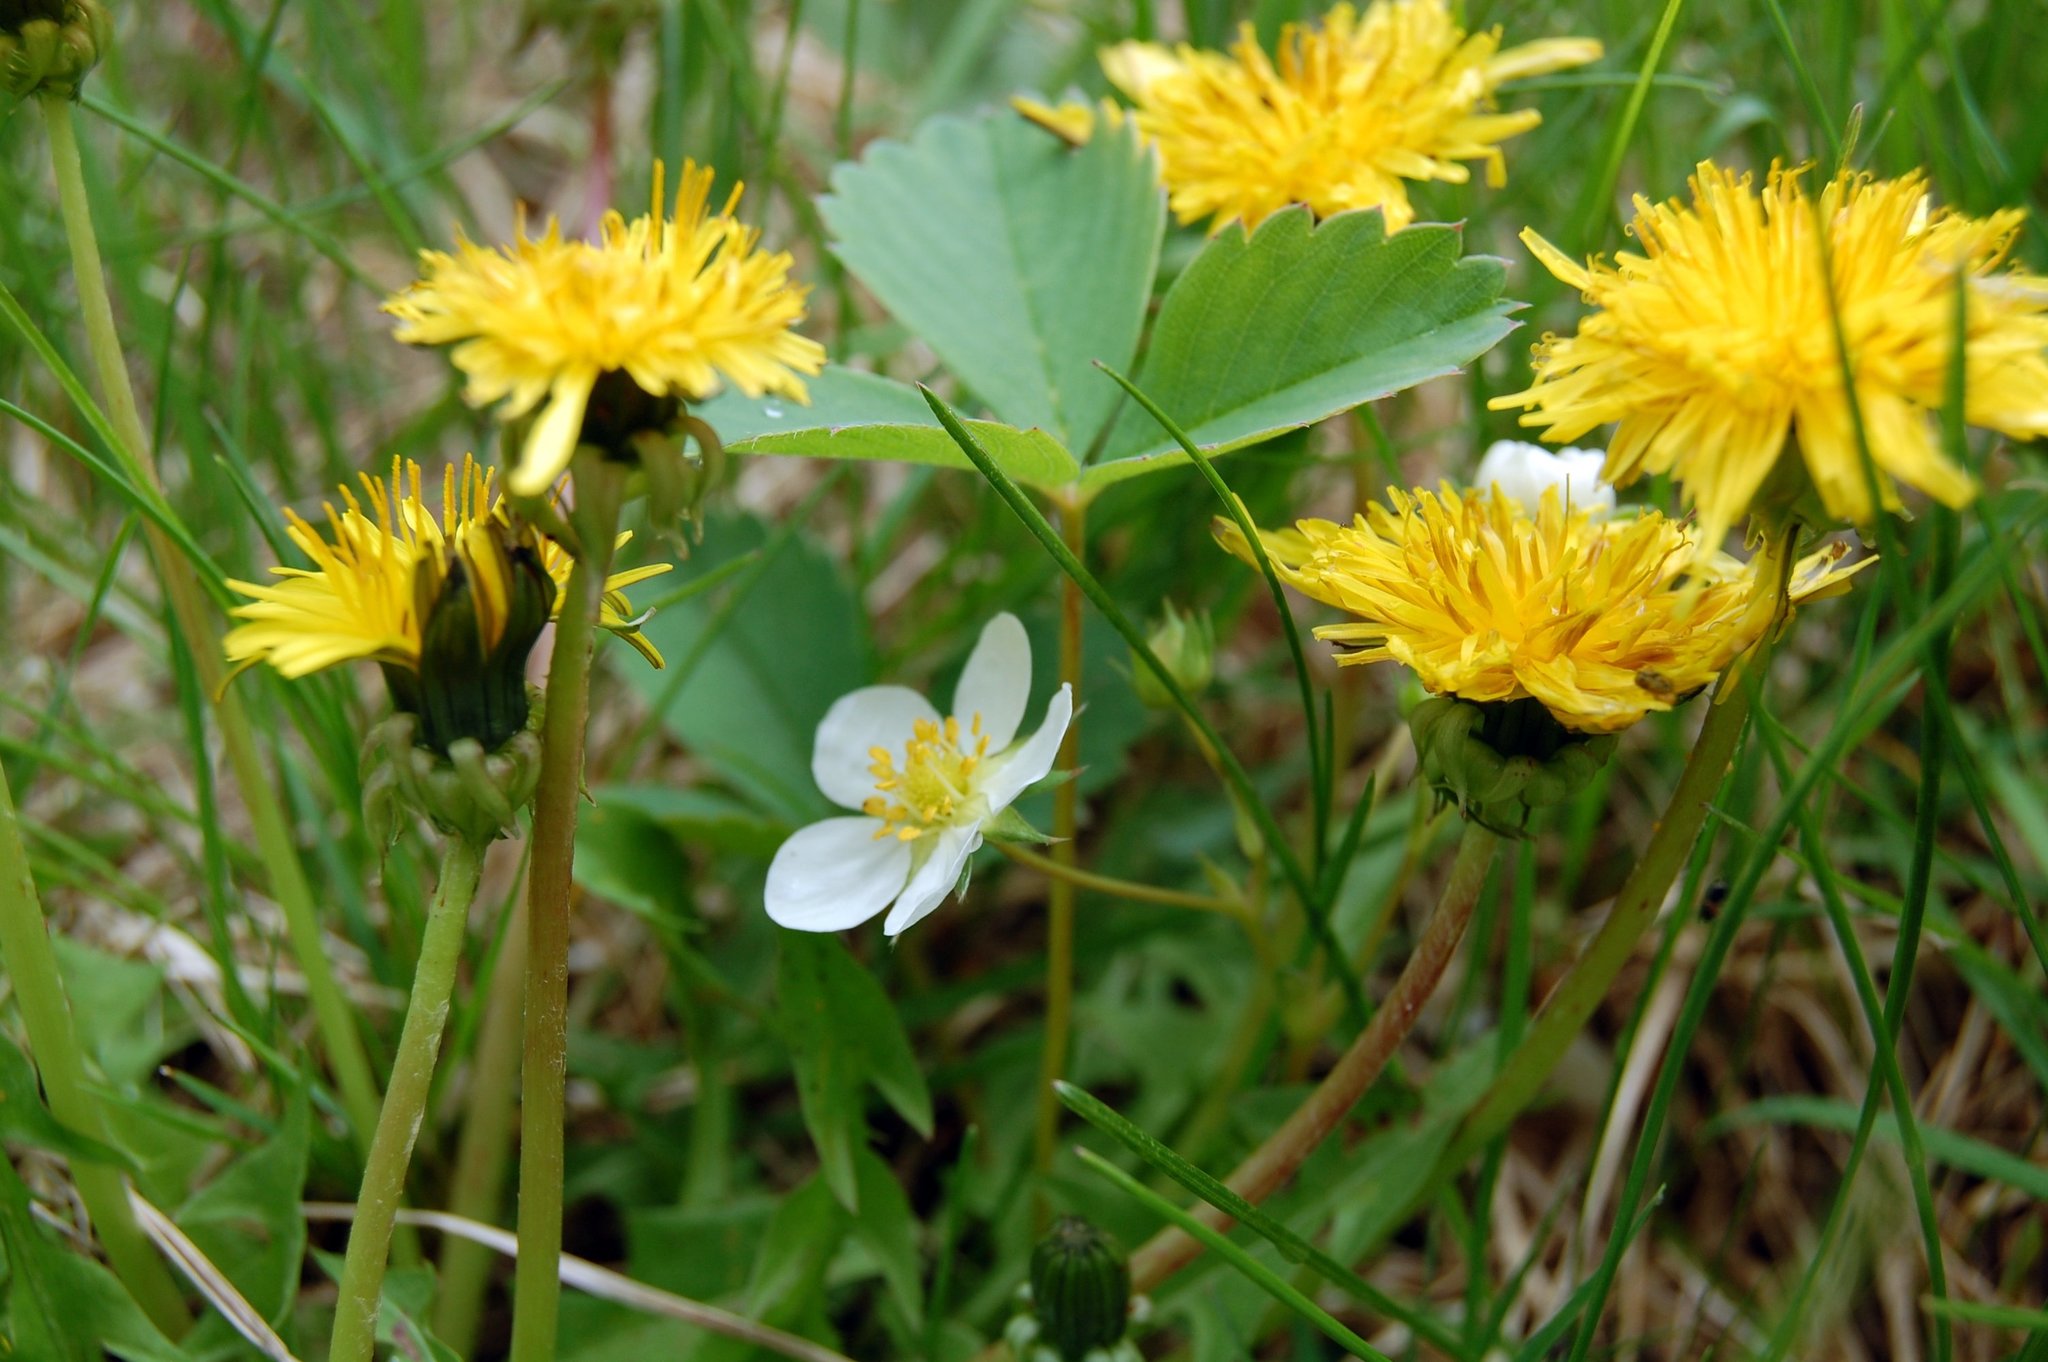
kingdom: Plantae
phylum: Tracheophyta
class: Magnoliopsida
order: Rosales
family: Rosaceae
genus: Fragaria
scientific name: Fragaria vesca
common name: Wild strawberry
